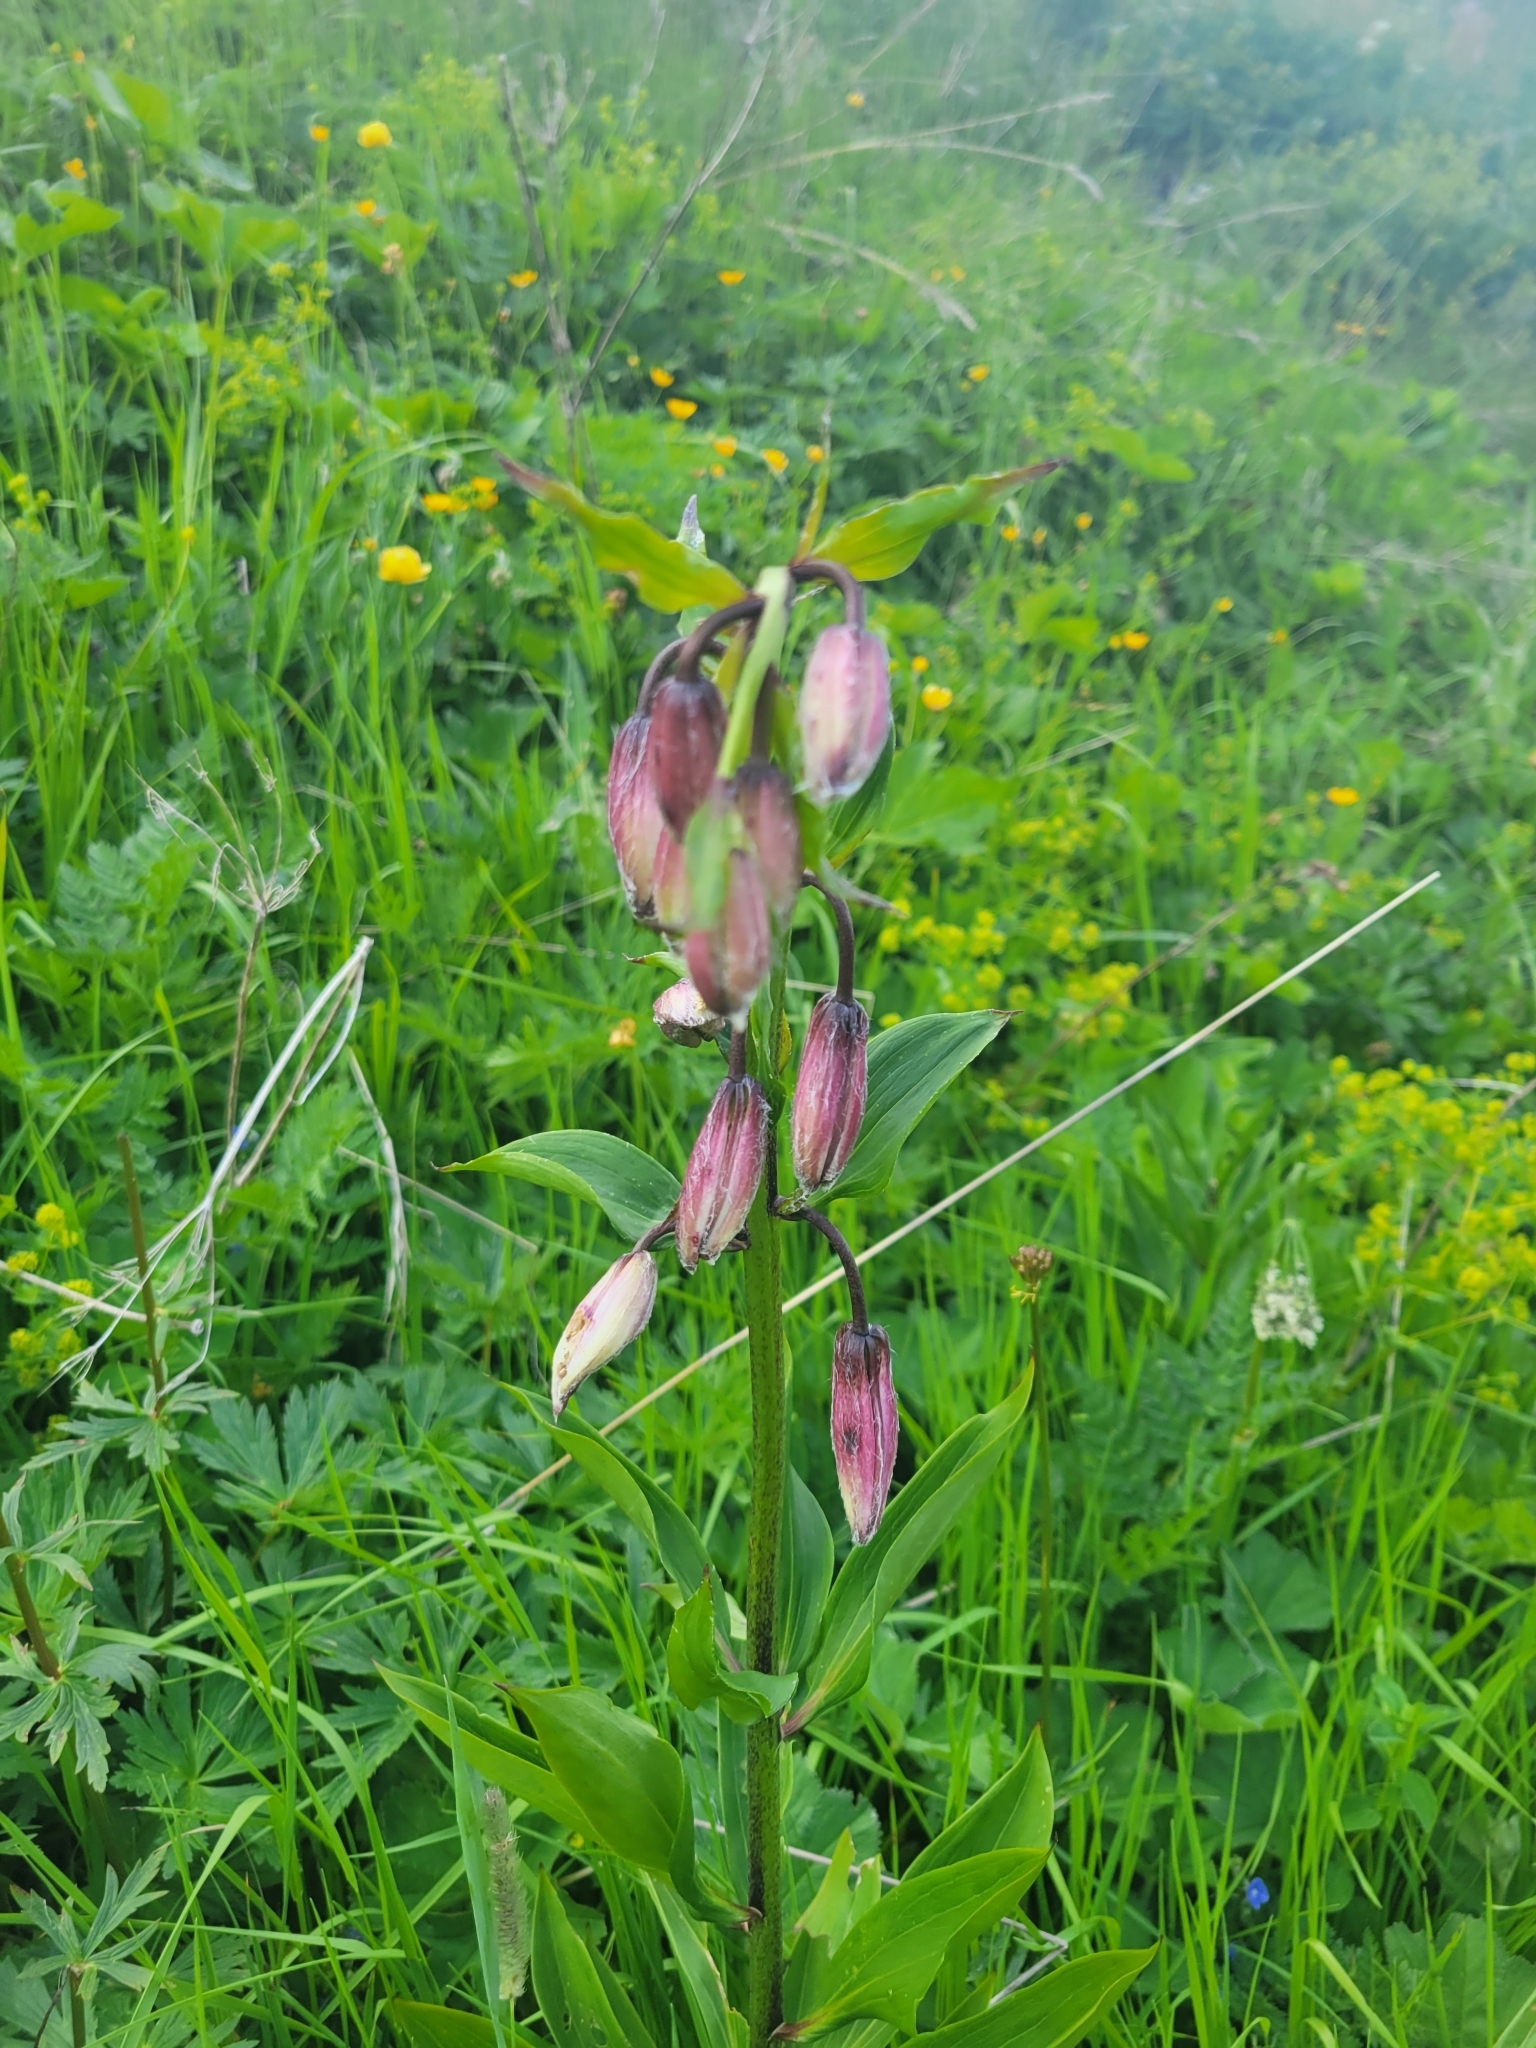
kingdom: Plantae
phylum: Tracheophyta
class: Liliopsida
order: Liliales
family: Liliaceae
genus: Lilium
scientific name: Lilium martagon
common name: Martagon lily
